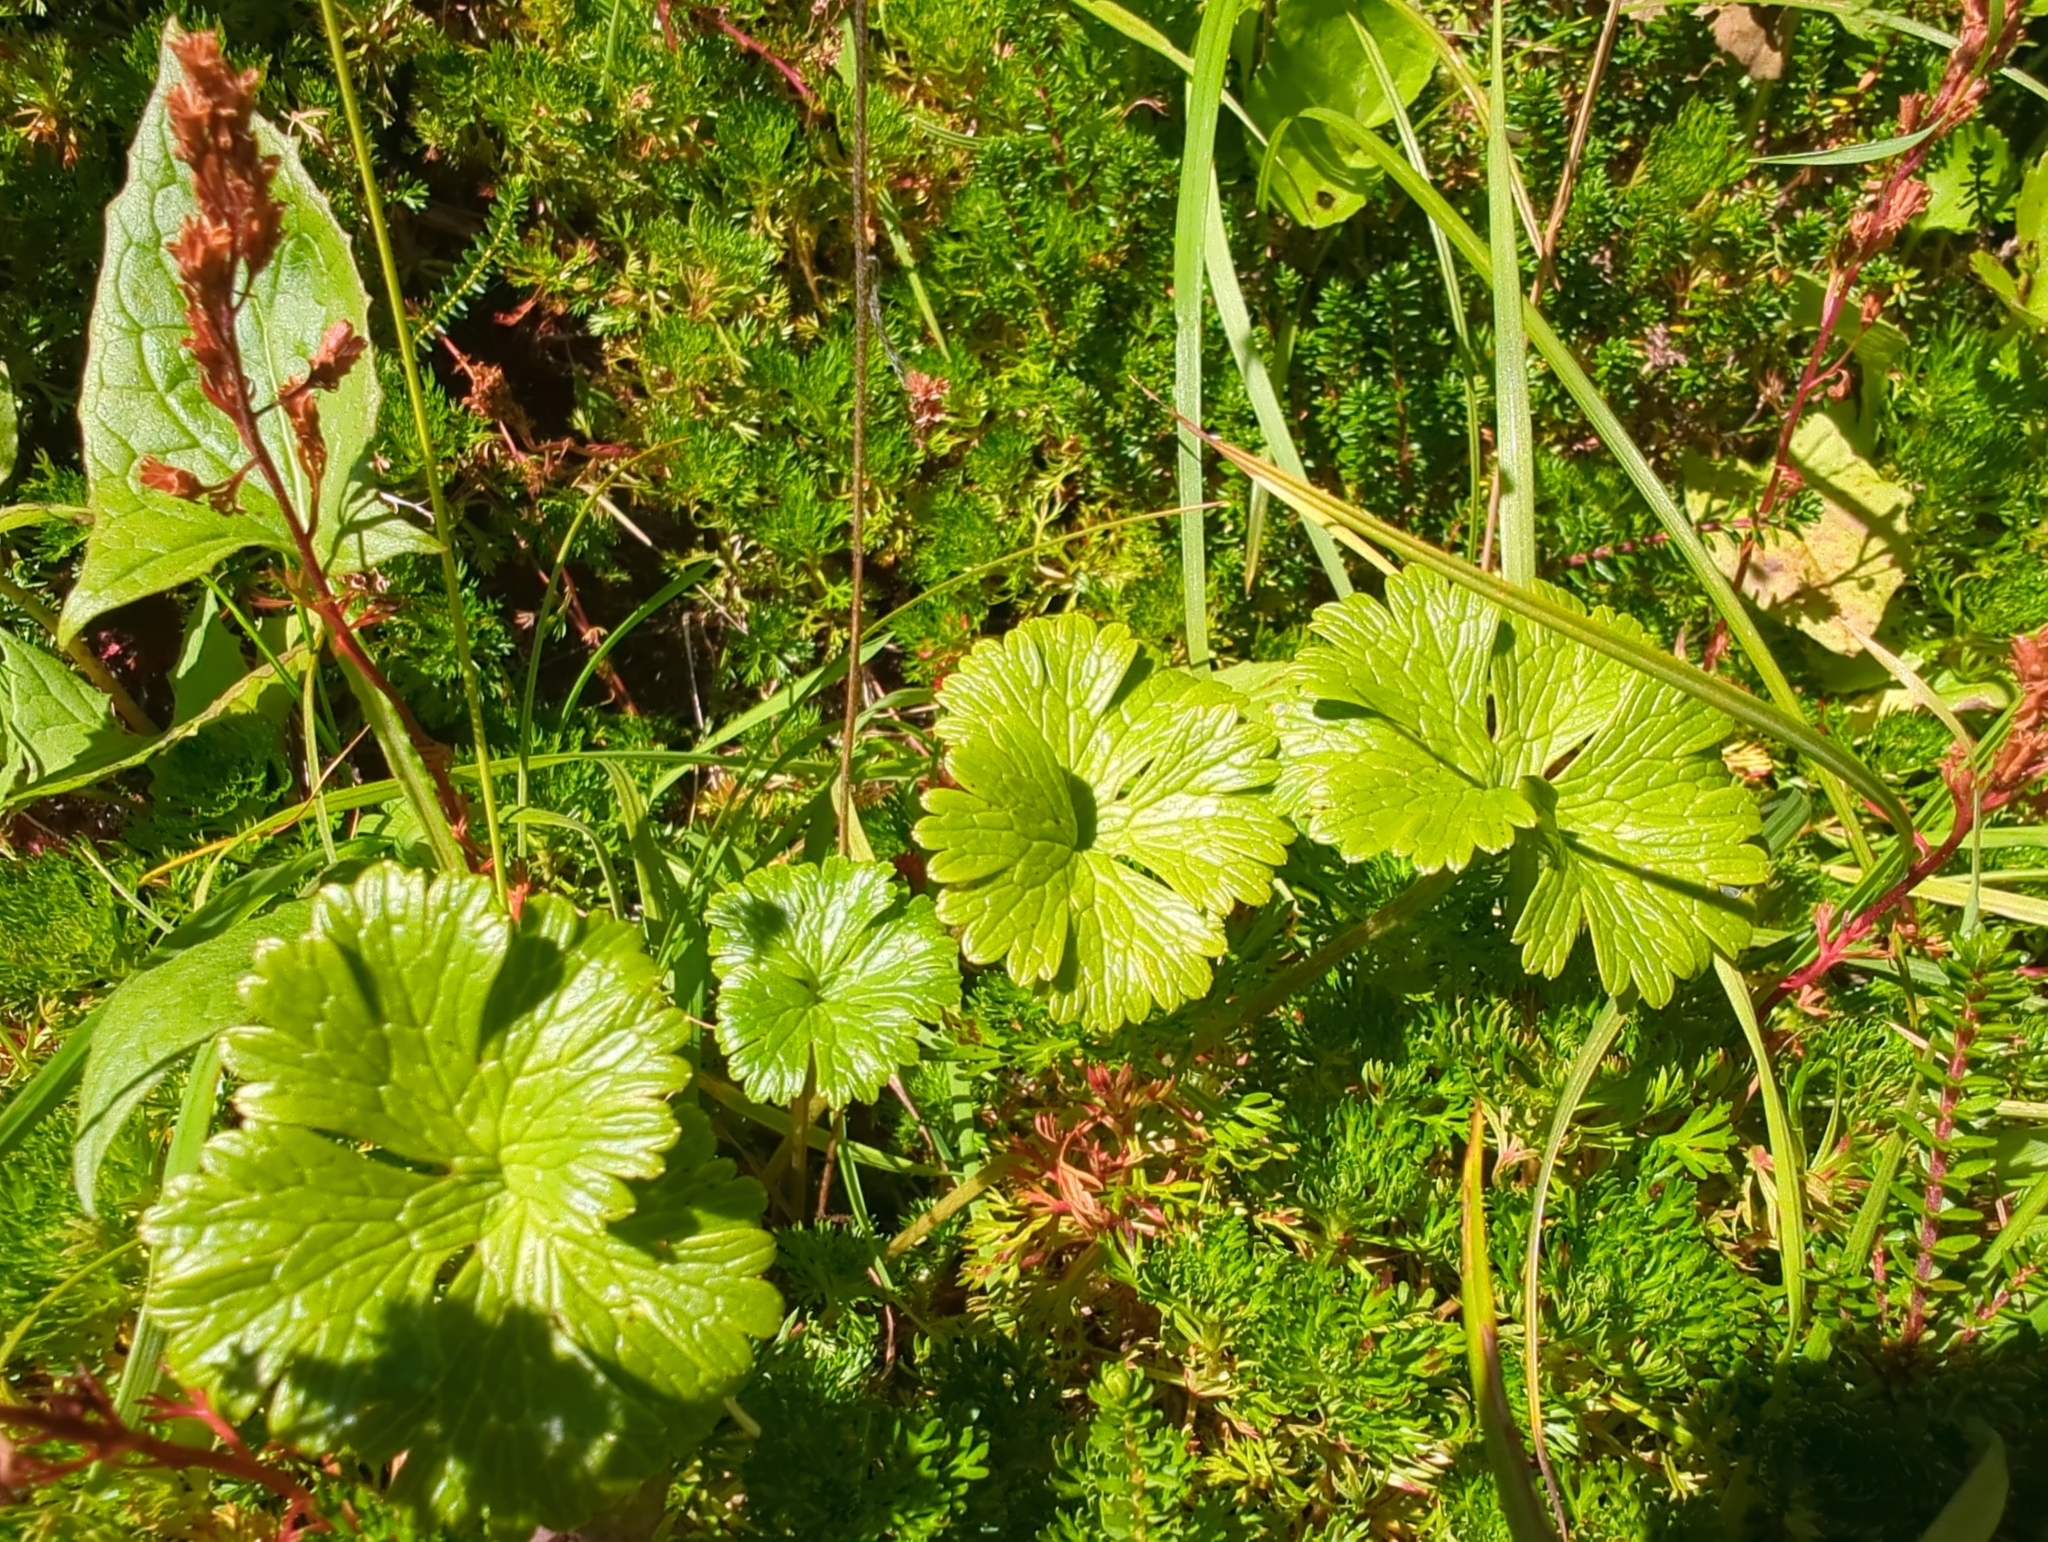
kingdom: Plantae
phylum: Tracheophyta
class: Magnoliopsida
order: Ranunculales
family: Ranunculaceae
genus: Arcteranthis
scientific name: Arcteranthis cooleyae
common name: Cooley's buttercup
